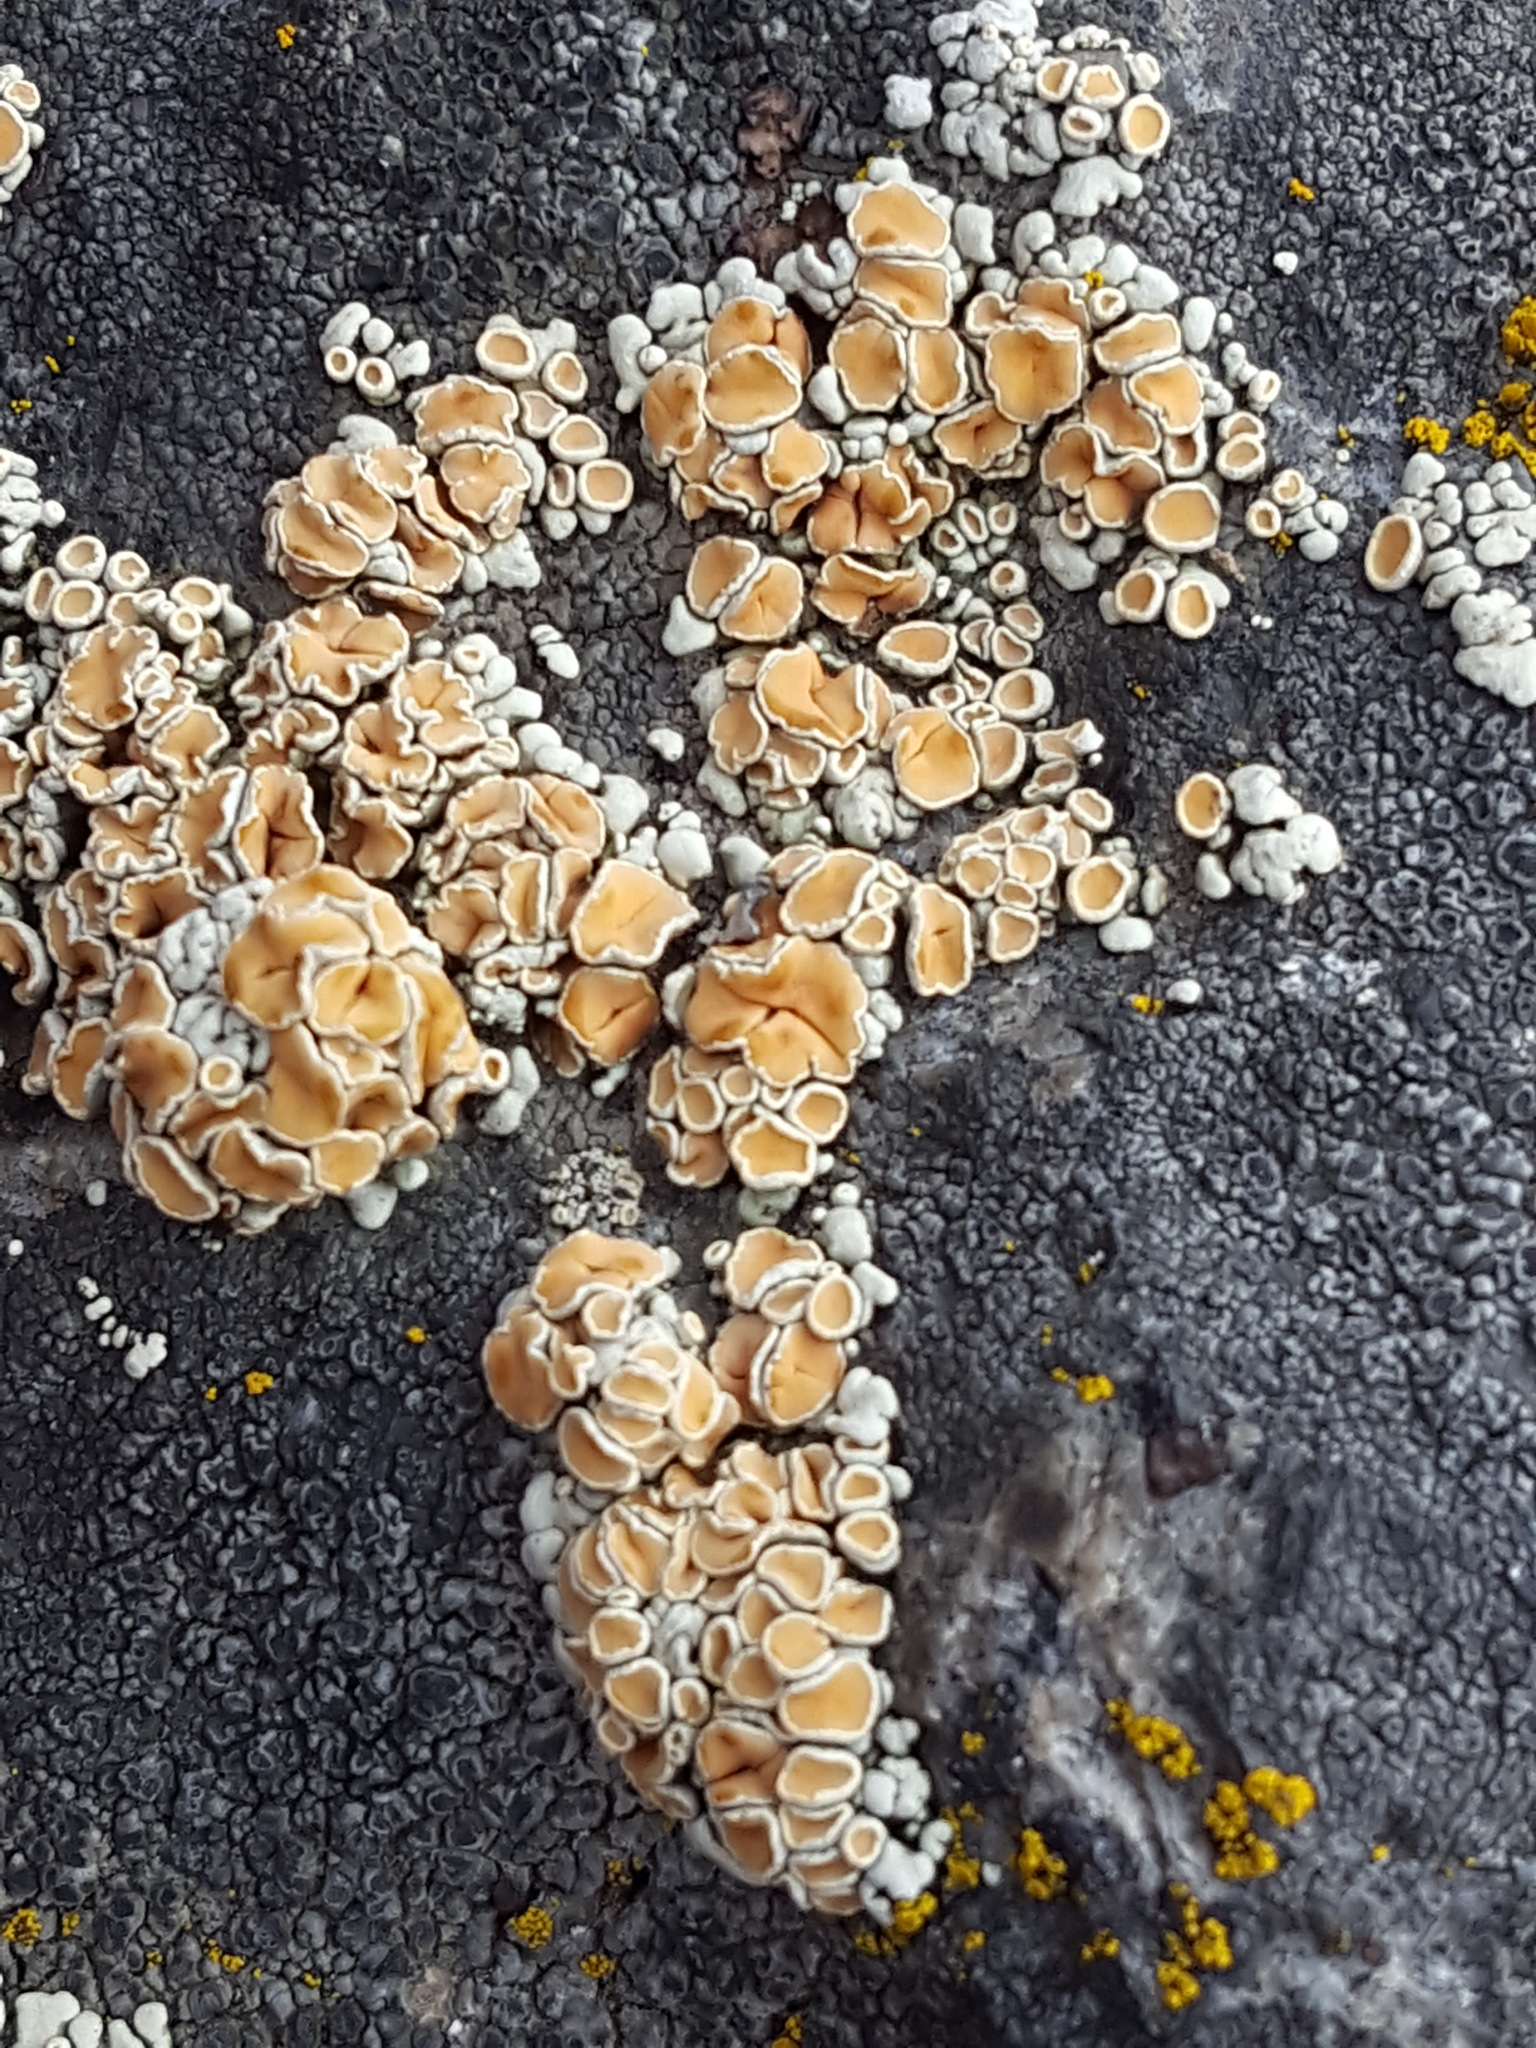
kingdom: Fungi
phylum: Ascomycota
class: Lecanoromycetes
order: Lecanorales
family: Lecanoraceae
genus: Omphalodina
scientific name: Omphalodina chrysoleuca
